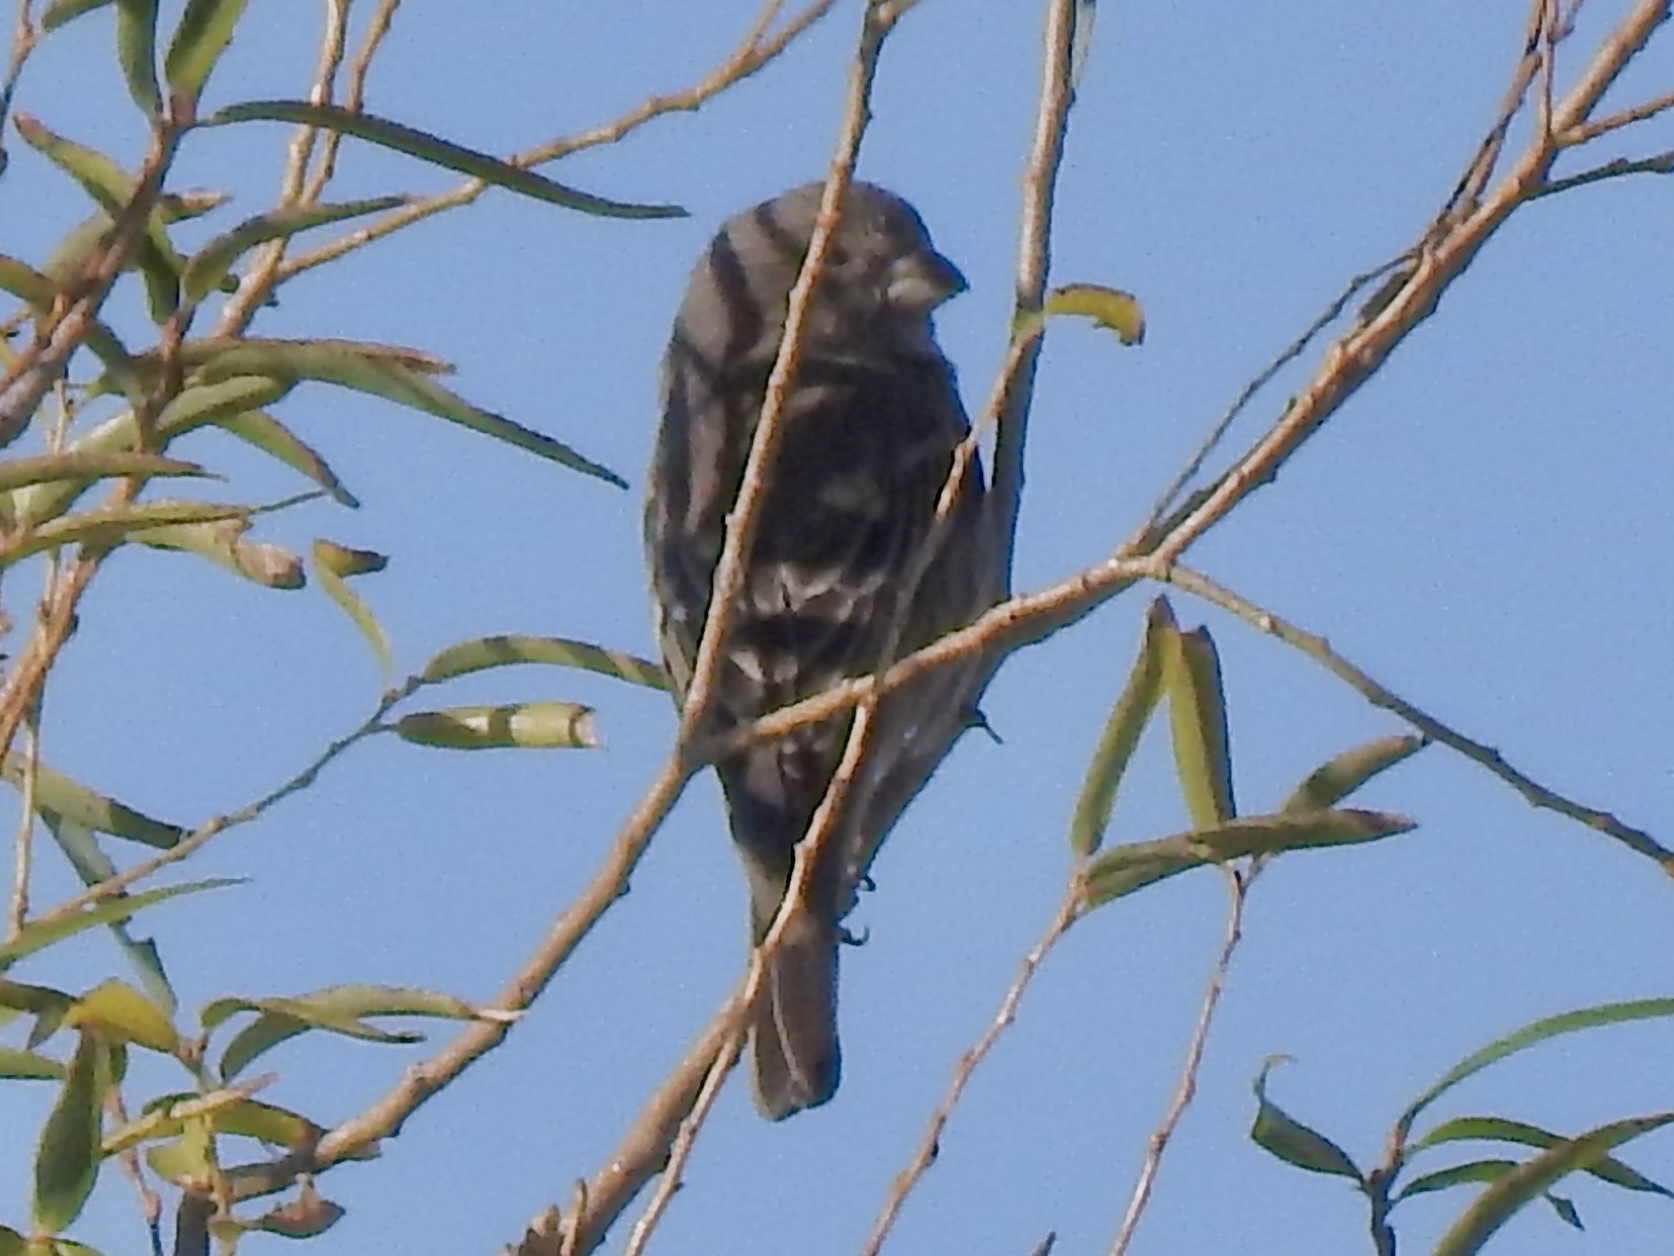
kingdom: Animalia
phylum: Chordata
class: Aves
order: Passeriformes
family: Fringillidae
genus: Haemorhous
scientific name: Haemorhous mexicanus
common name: House finch
